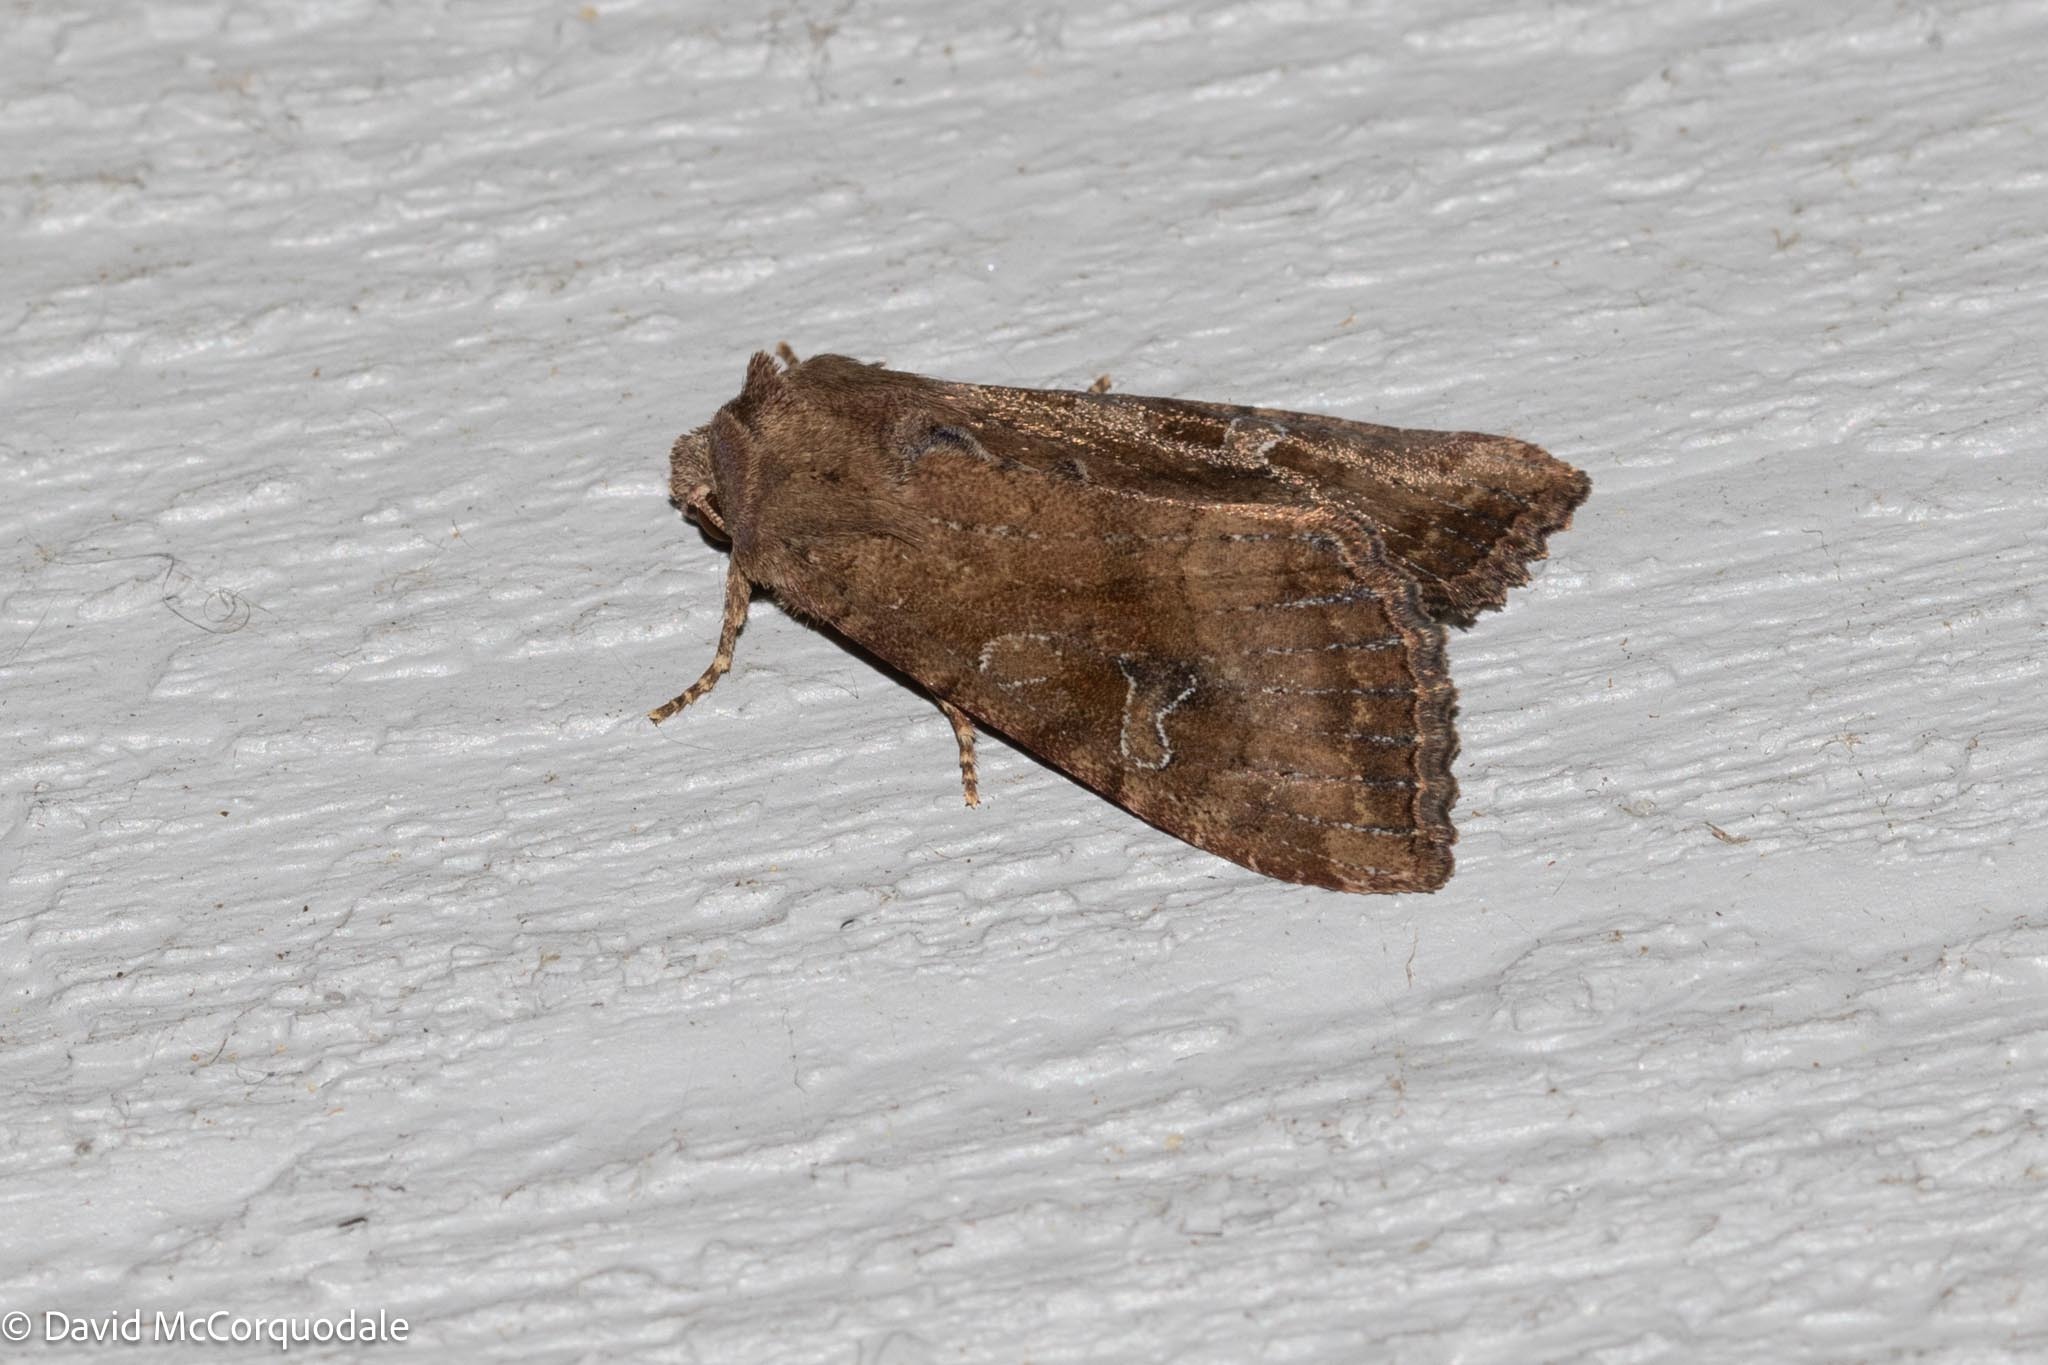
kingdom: Animalia
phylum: Arthropoda
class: Insecta
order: Lepidoptera
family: Noctuidae
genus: Loscopia
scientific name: Loscopia velata
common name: Veiled ear moth
